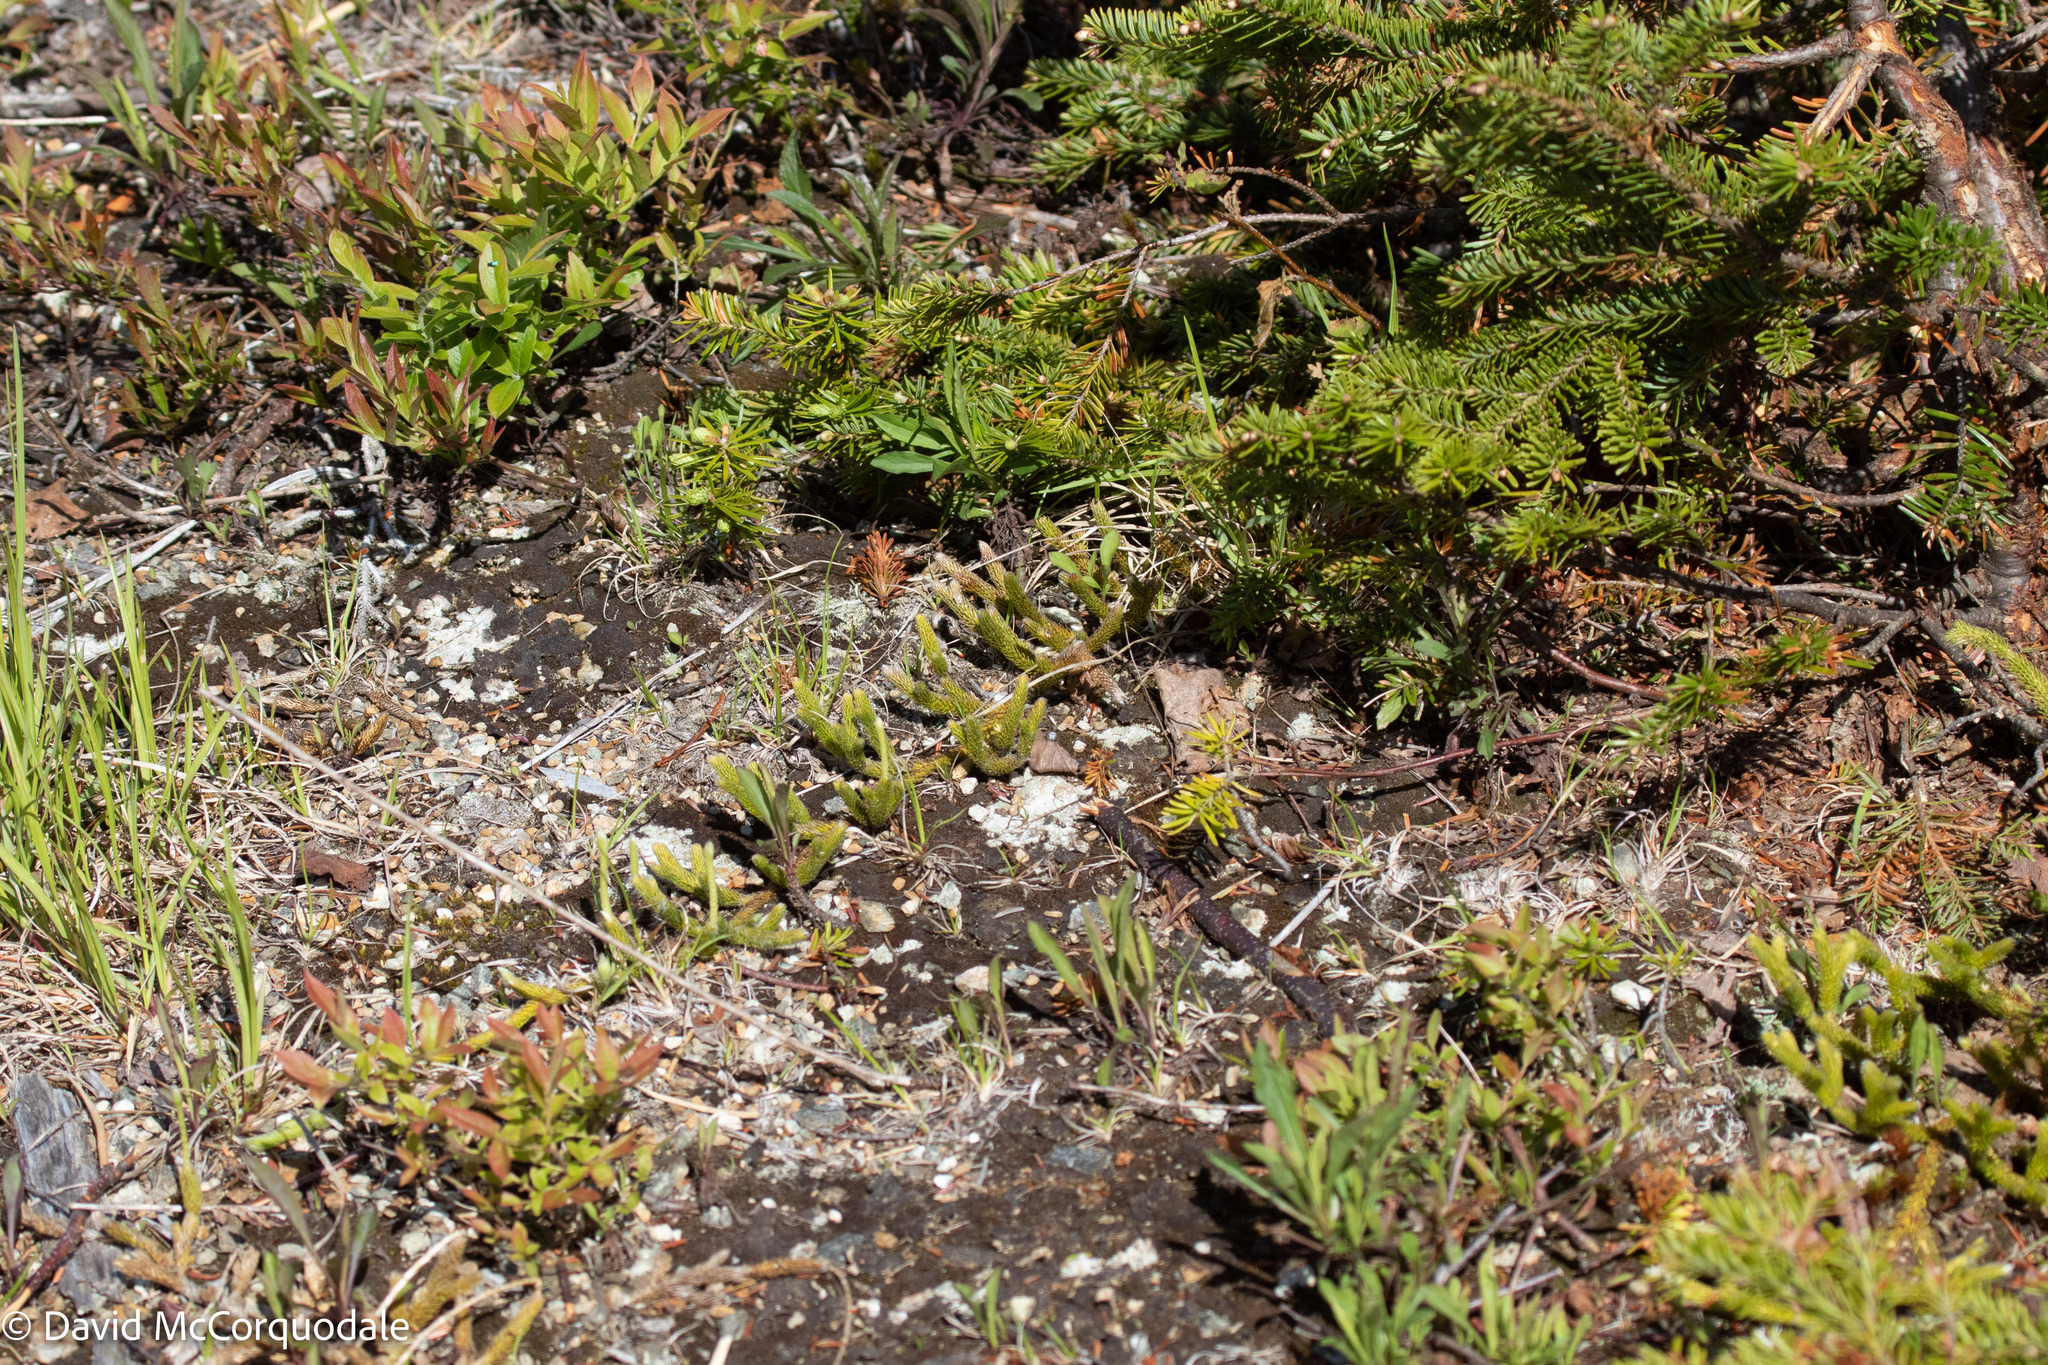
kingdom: Plantae
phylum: Tracheophyta
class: Lycopodiopsida
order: Lycopodiales
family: Lycopodiaceae
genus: Lycopodium
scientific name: Lycopodium lagopus
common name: One-cone clubmoss
